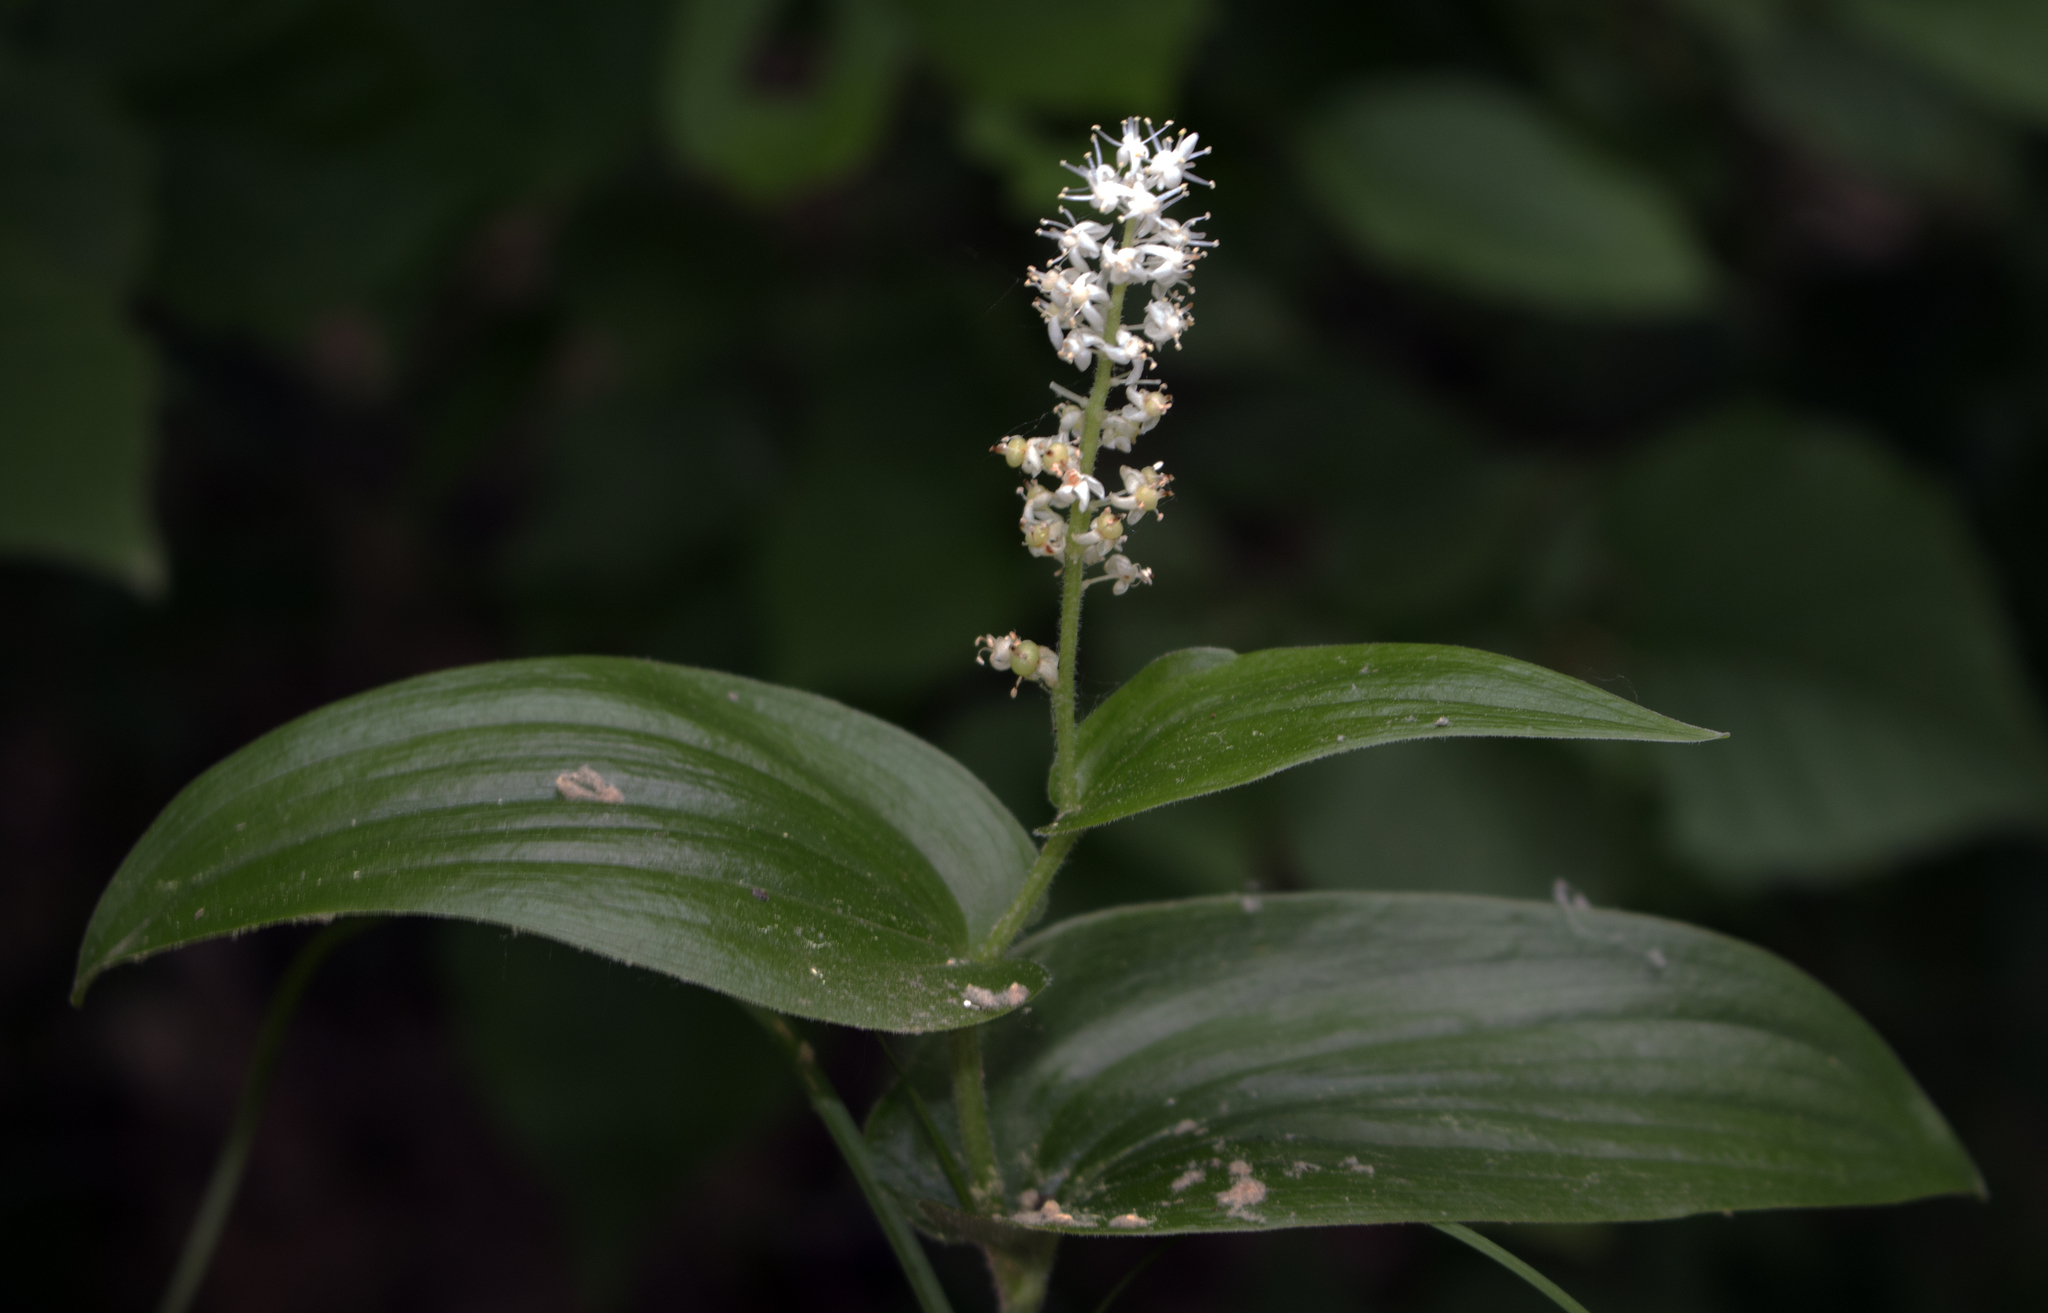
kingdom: Plantae
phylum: Tracheophyta
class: Liliopsida
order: Asparagales
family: Asparagaceae
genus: Maianthemum
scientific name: Maianthemum canadense
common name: False lily-of-the-valley
